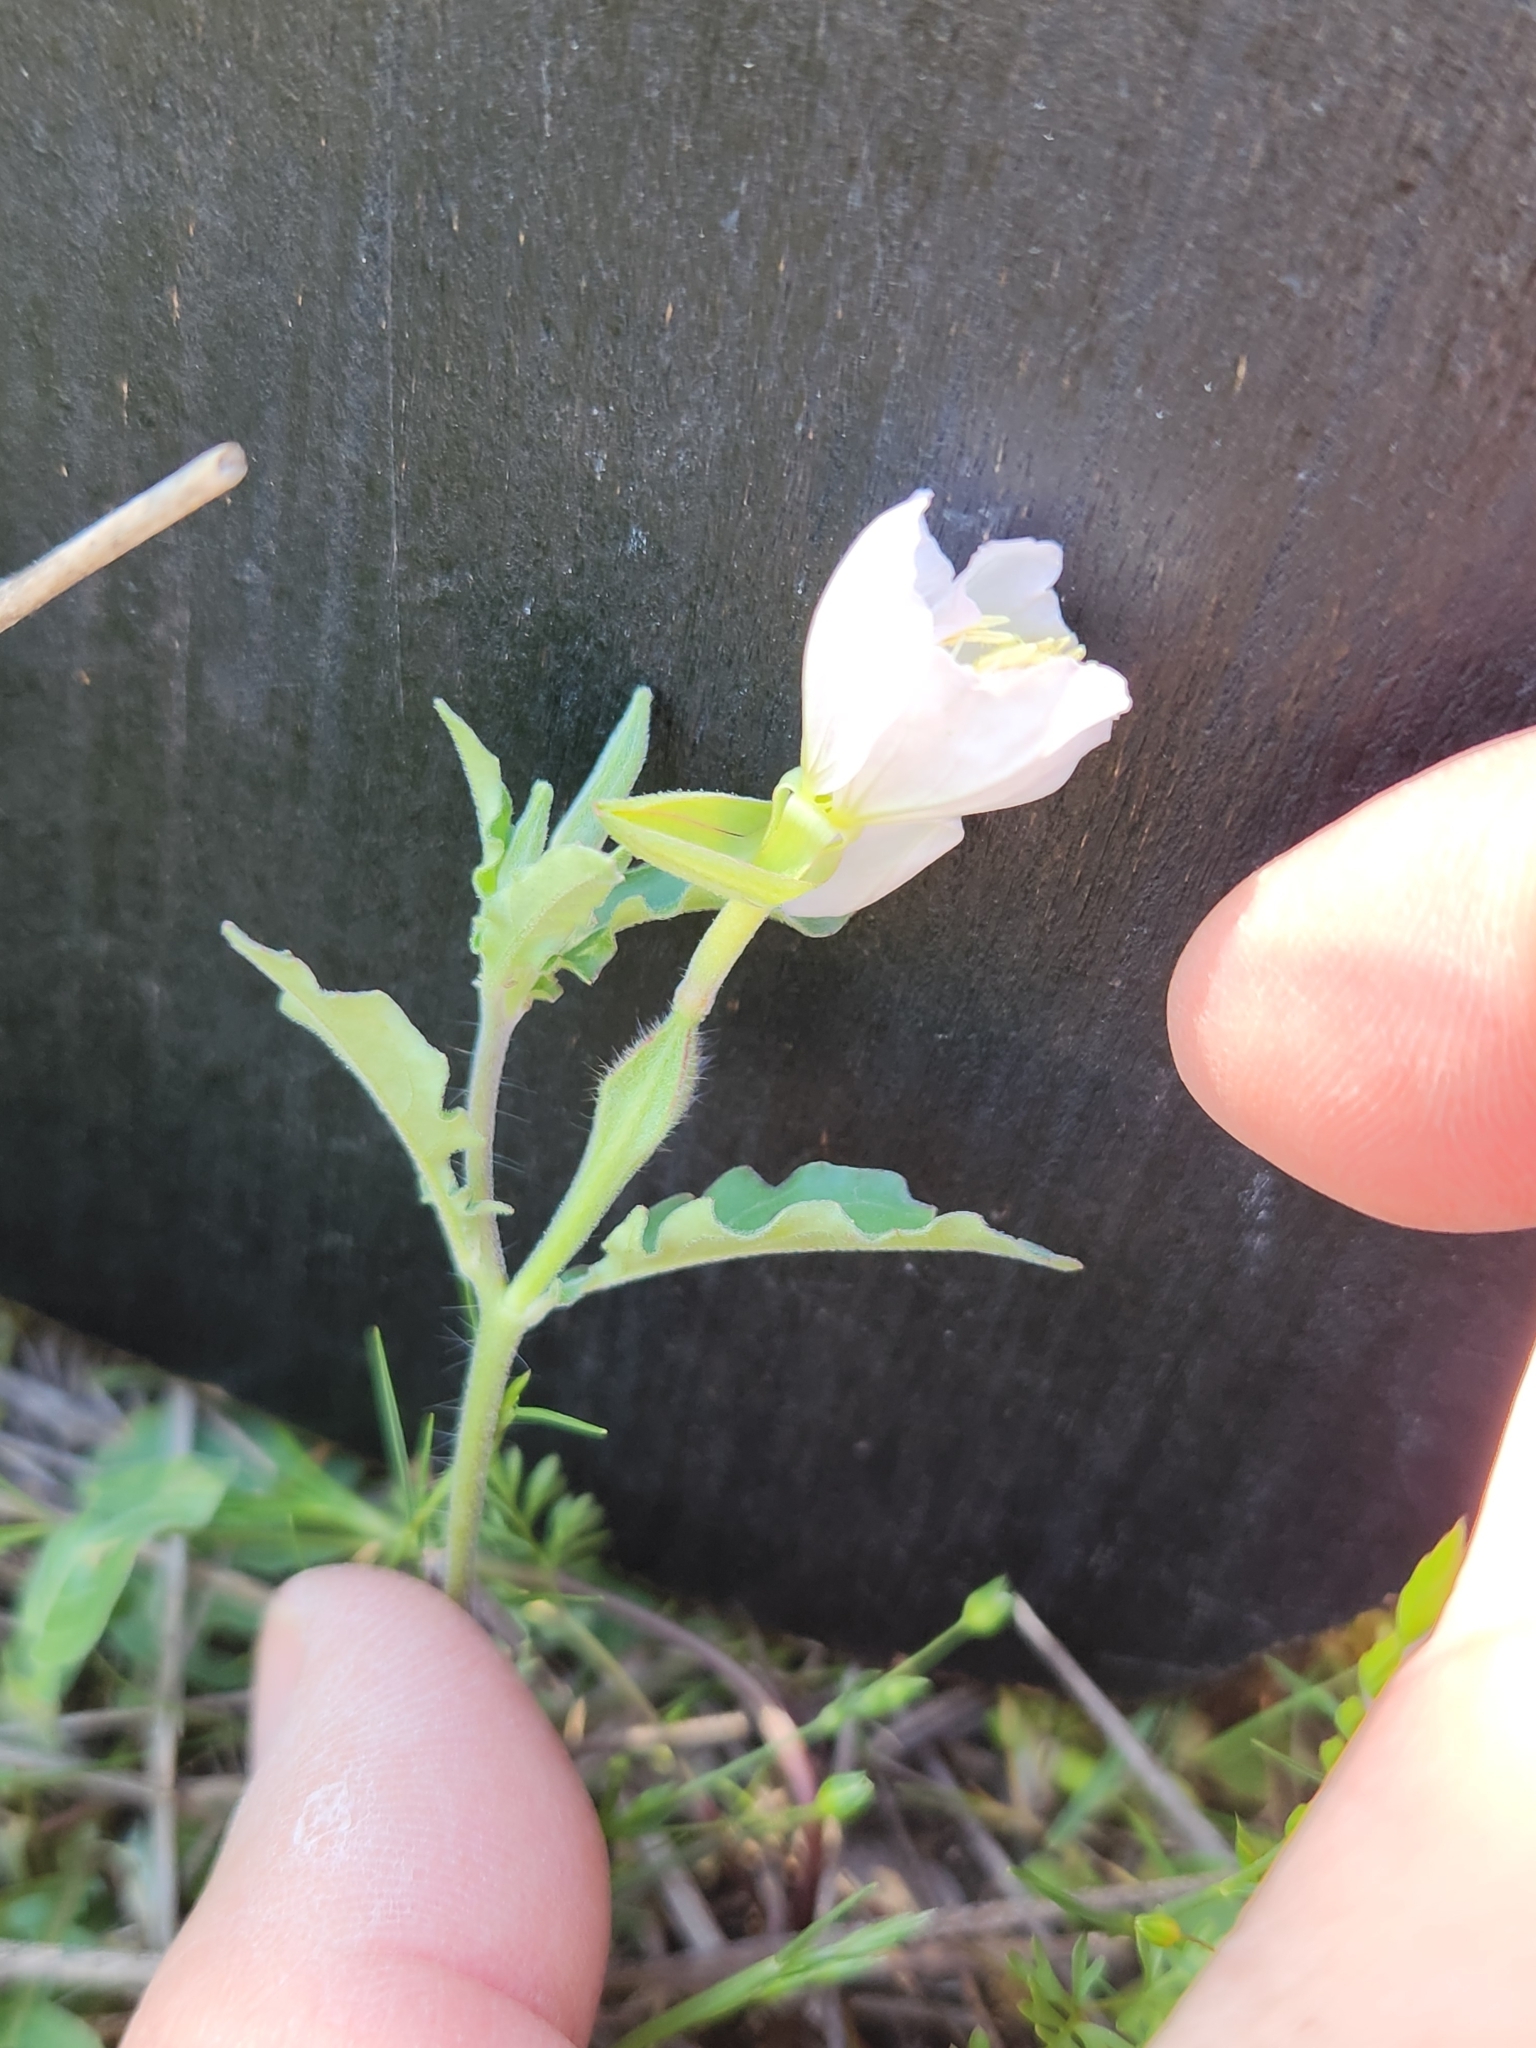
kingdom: Plantae
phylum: Tracheophyta
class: Magnoliopsida
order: Myrtales
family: Onagraceae
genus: Oenothera
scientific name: Oenothera speciosa
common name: White evening-primrose
